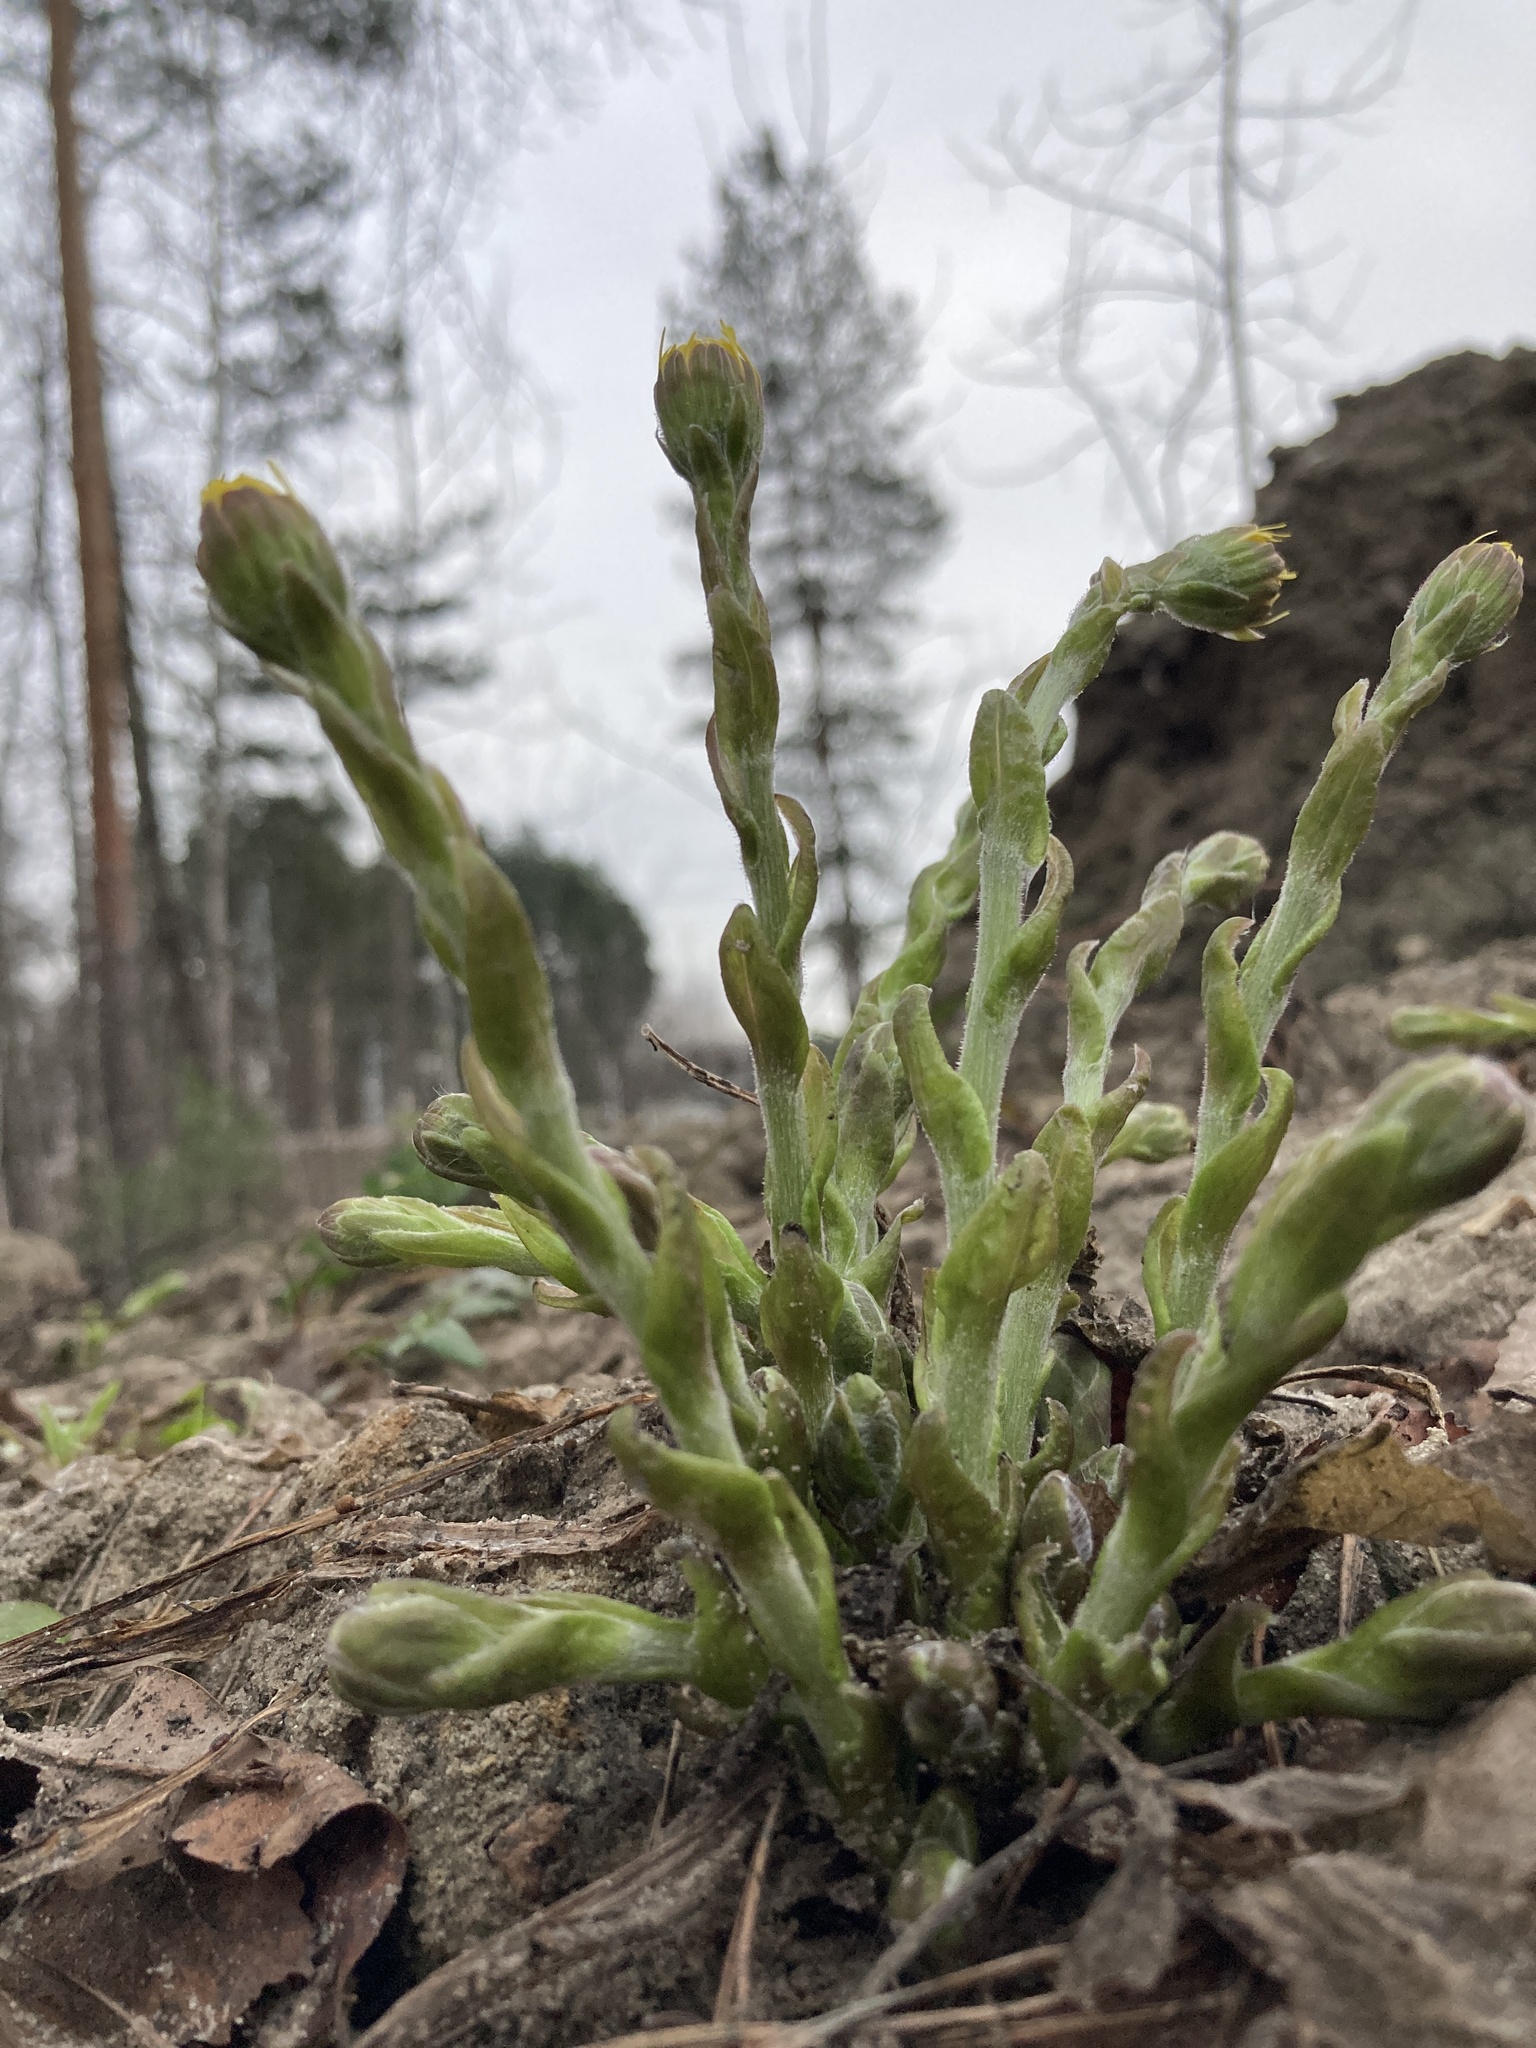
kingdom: Plantae
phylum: Tracheophyta
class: Magnoliopsida
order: Asterales
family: Asteraceae
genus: Tussilago
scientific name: Tussilago farfara
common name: Coltsfoot
